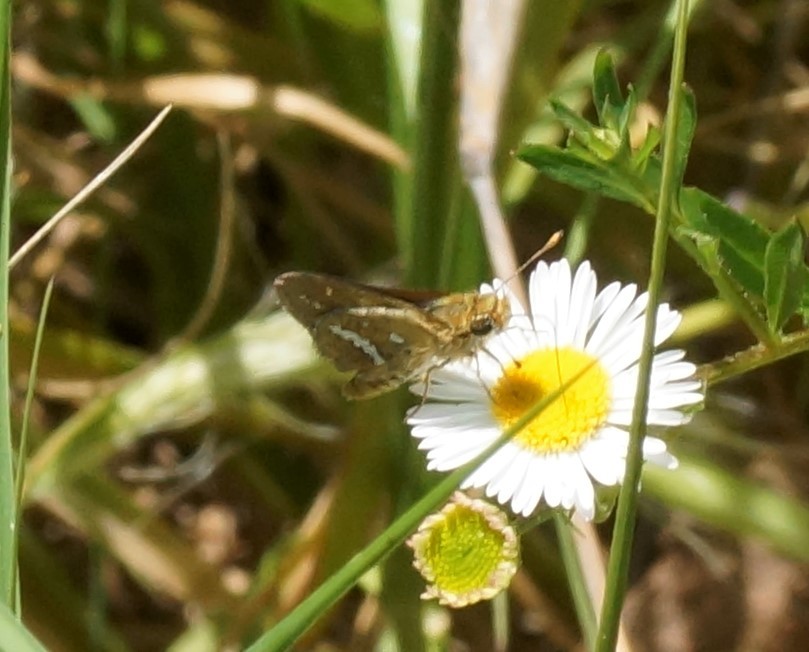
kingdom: Animalia
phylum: Arthropoda
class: Insecta
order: Lepidoptera
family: Hesperiidae
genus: Taractrocera
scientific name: Taractrocera papyria
